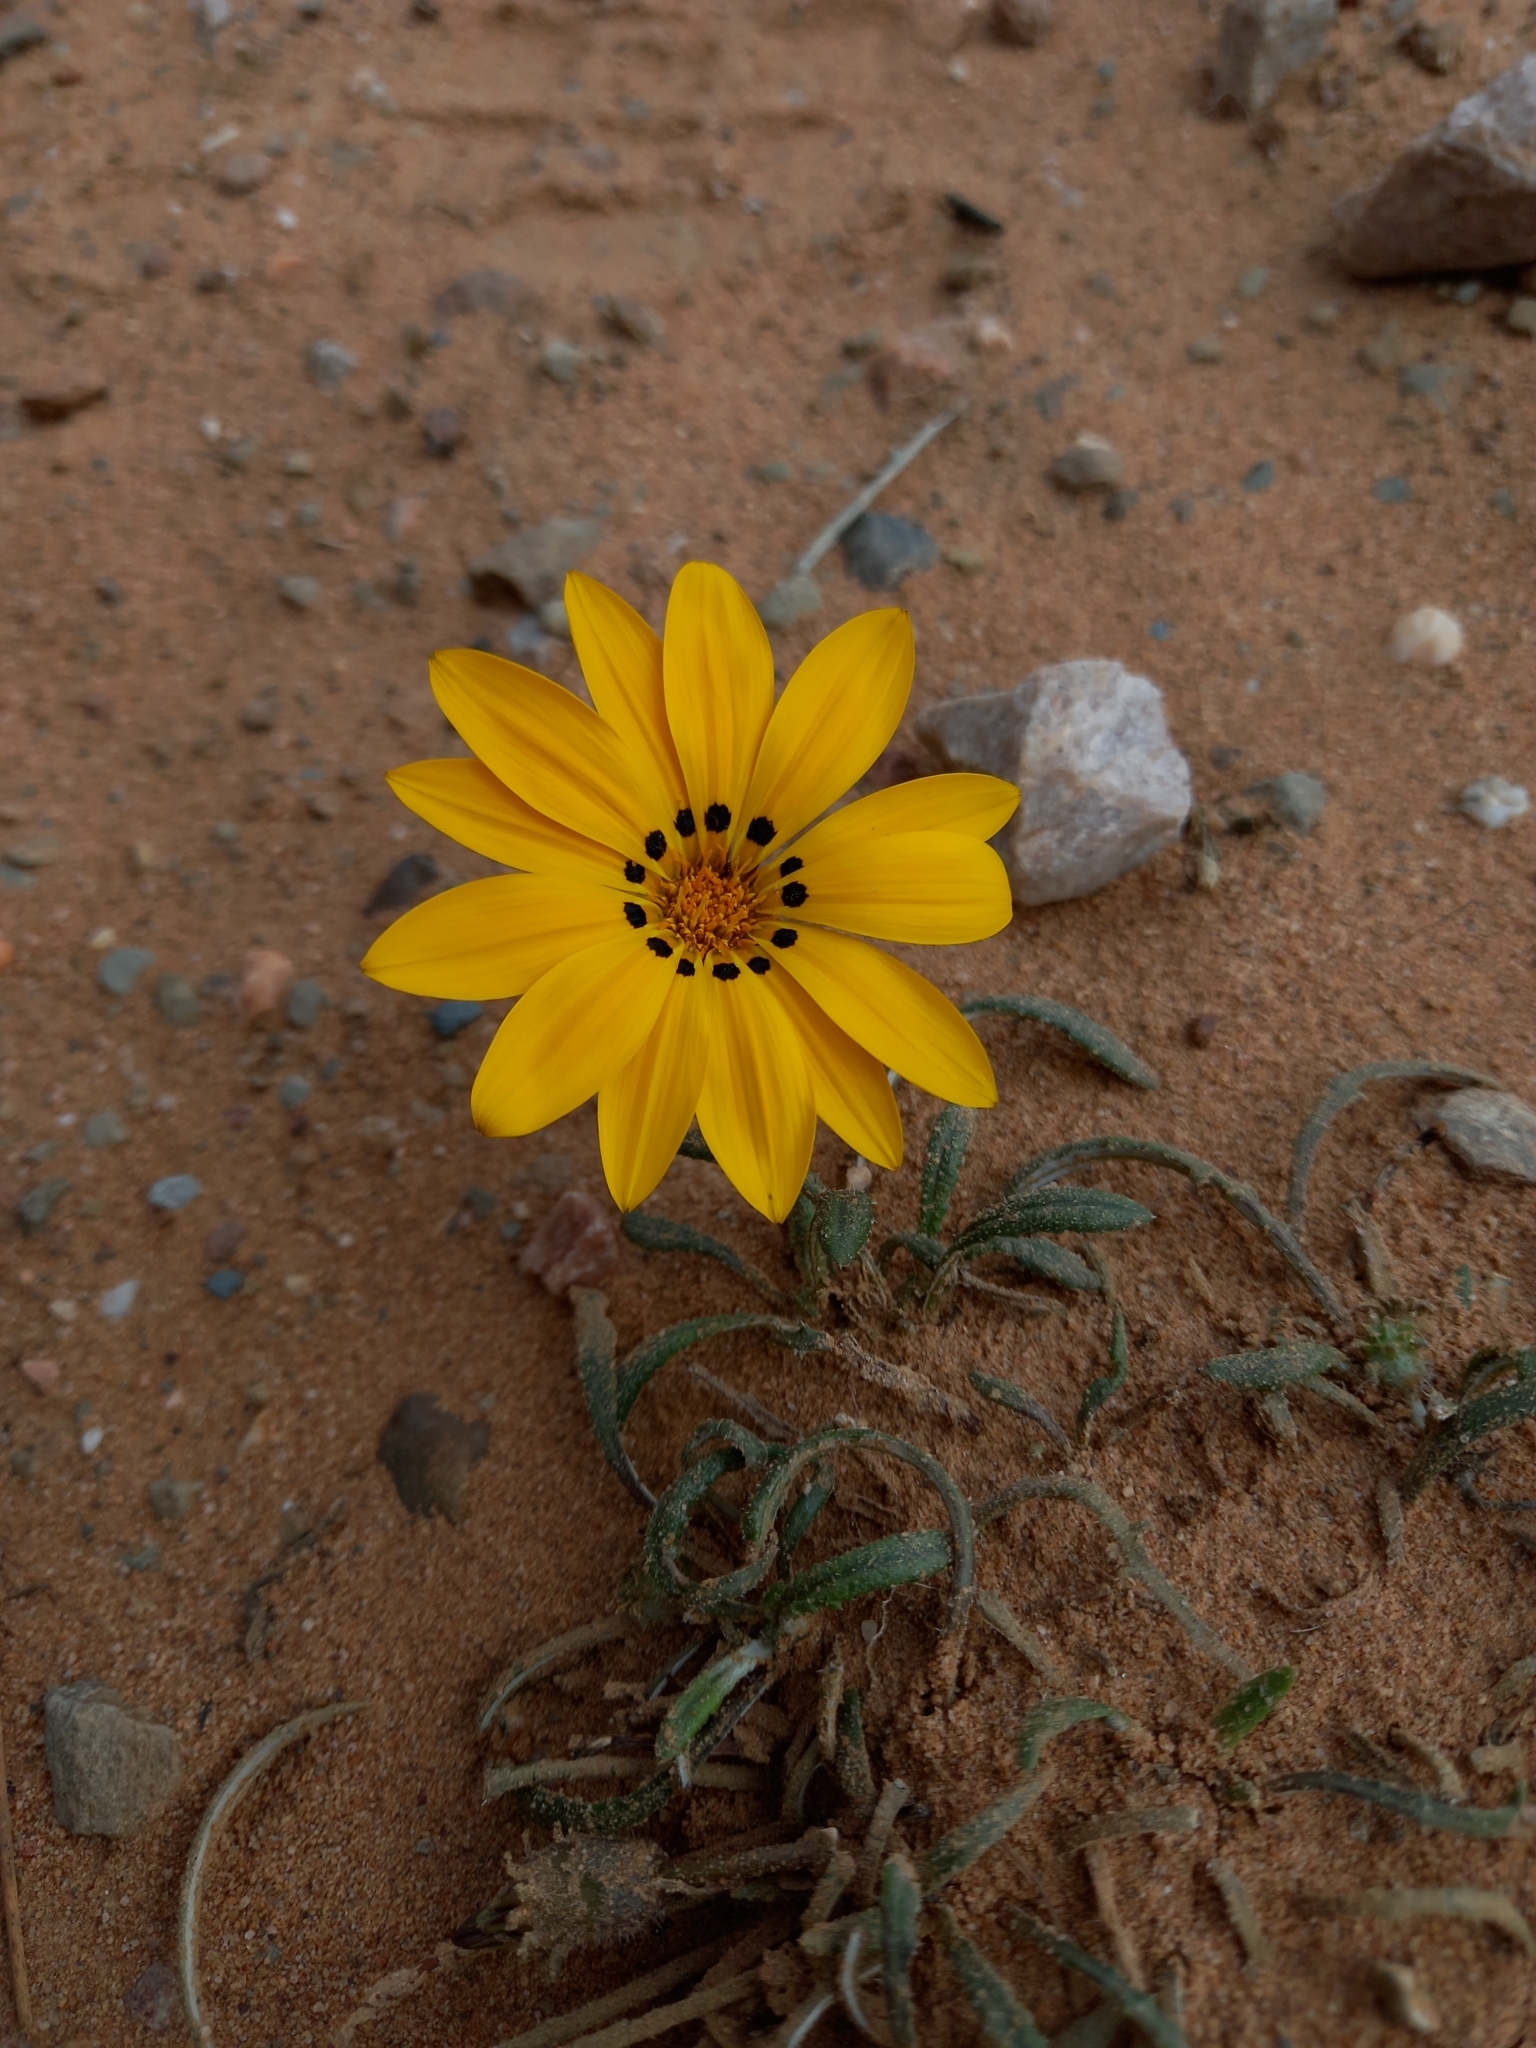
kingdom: Plantae
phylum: Tracheophyta
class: Magnoliopsida
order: Asterales
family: Asteraceae
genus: Gazania
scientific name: Gazania krebsiana
